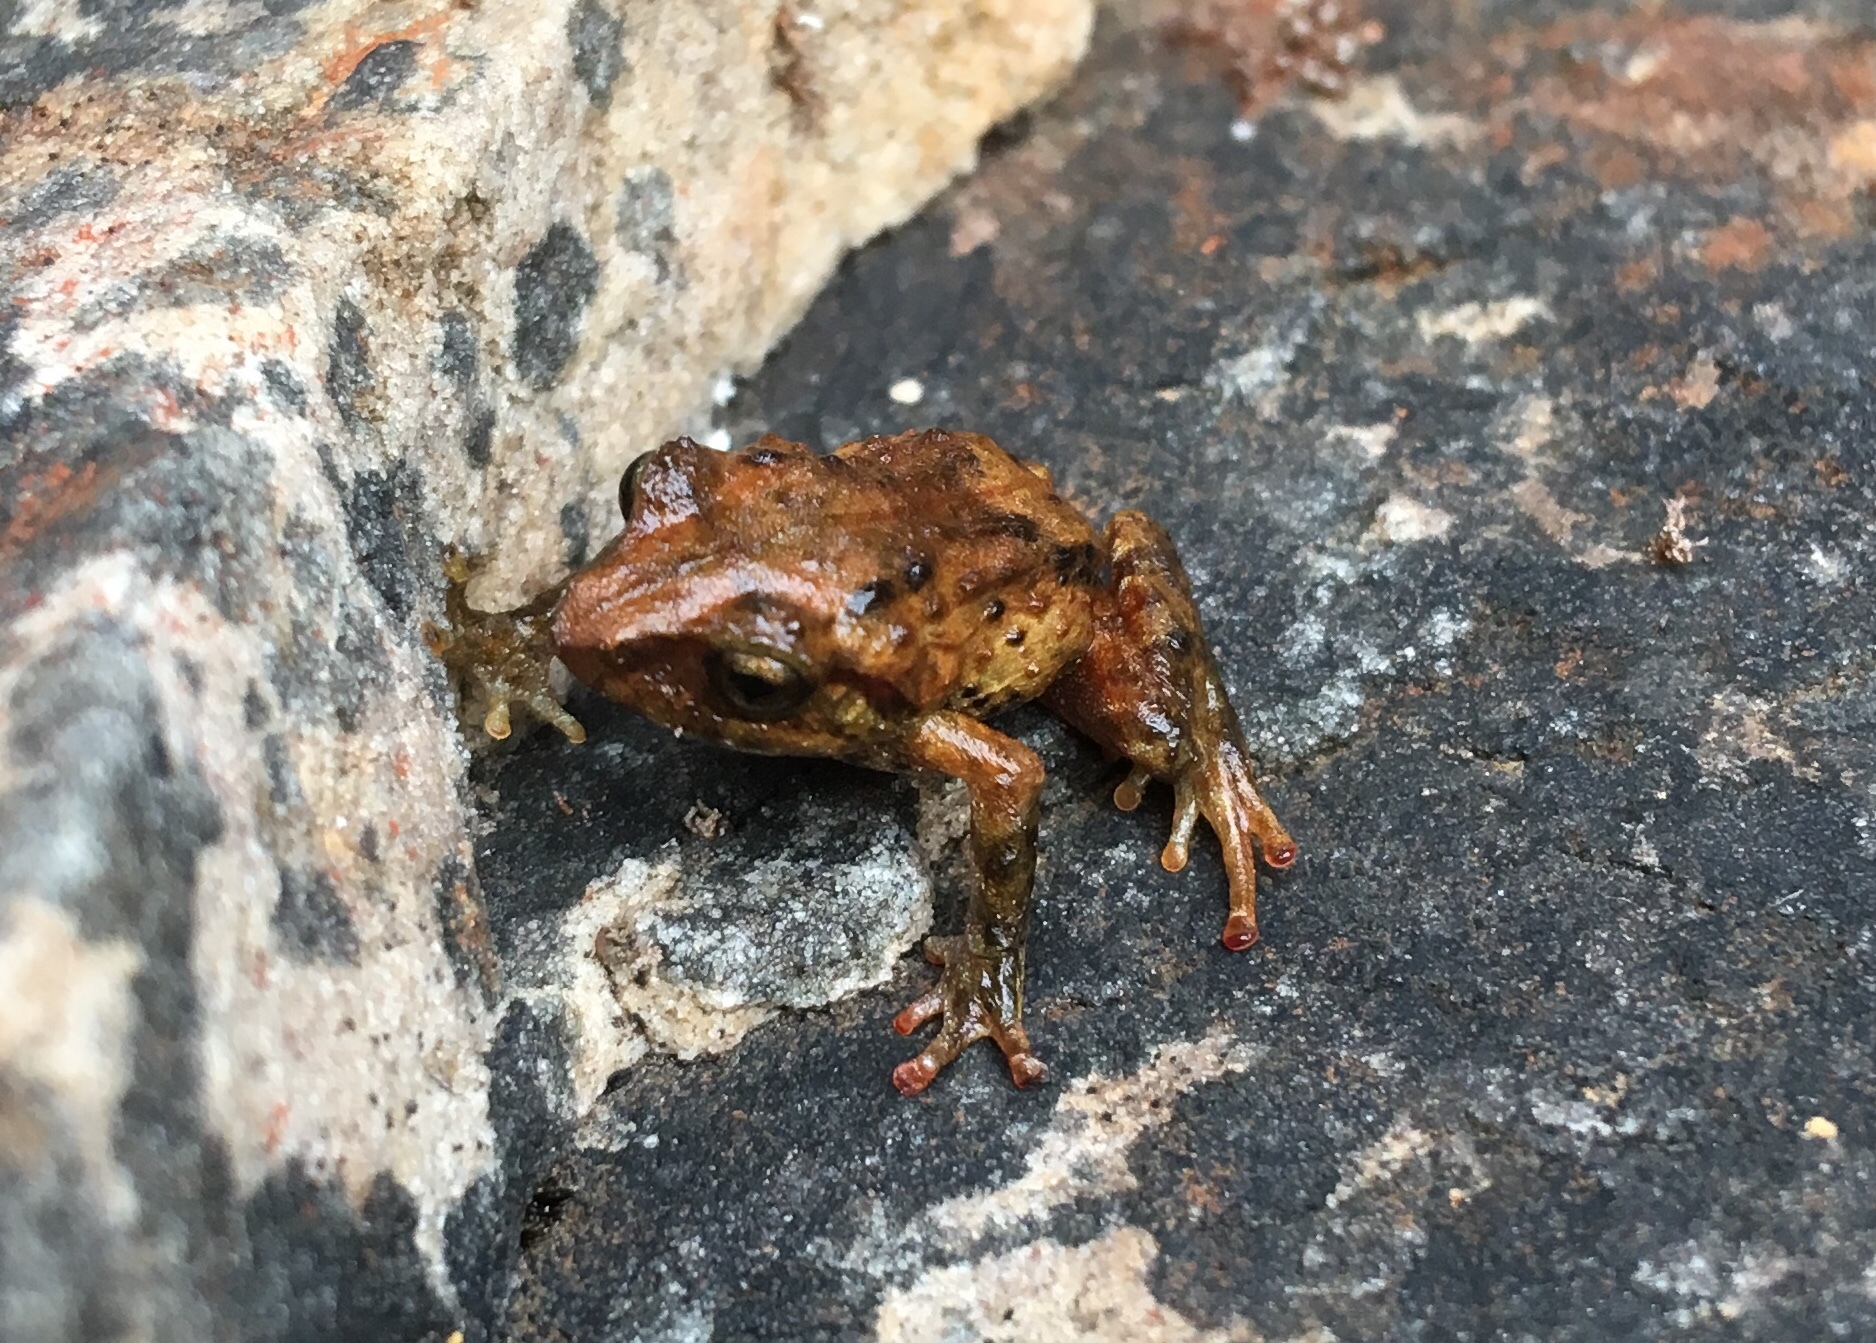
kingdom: Animalia
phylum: Chordata
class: Amphibia
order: Anura
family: Craugastoridae
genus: Pristimantis
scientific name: Pristimantis nervicus
